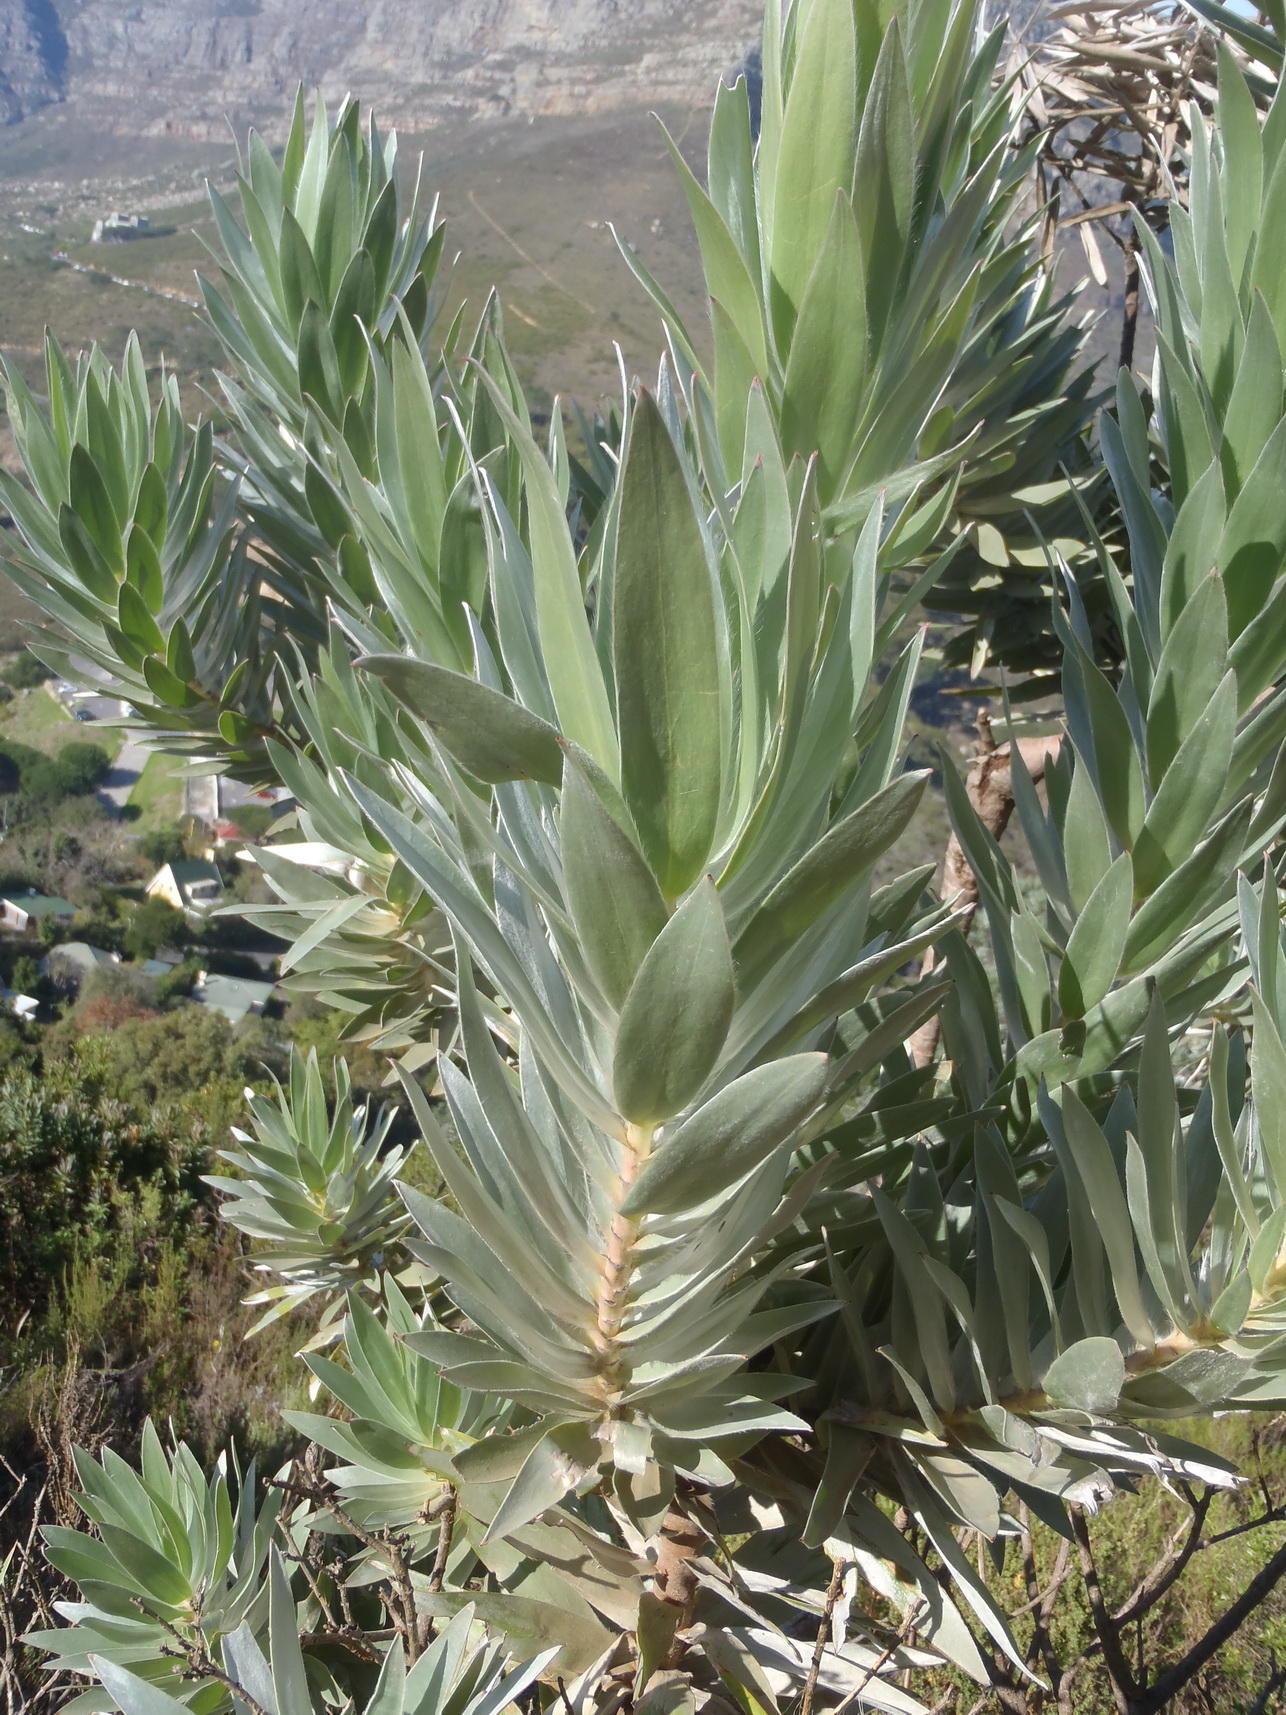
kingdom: Plantae
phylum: Tracheophyta
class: Magnoliopsida
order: Proteales
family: Proteaceae
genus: Leucadendron
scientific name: Leucadendron argenteum
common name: Cape silver tree
